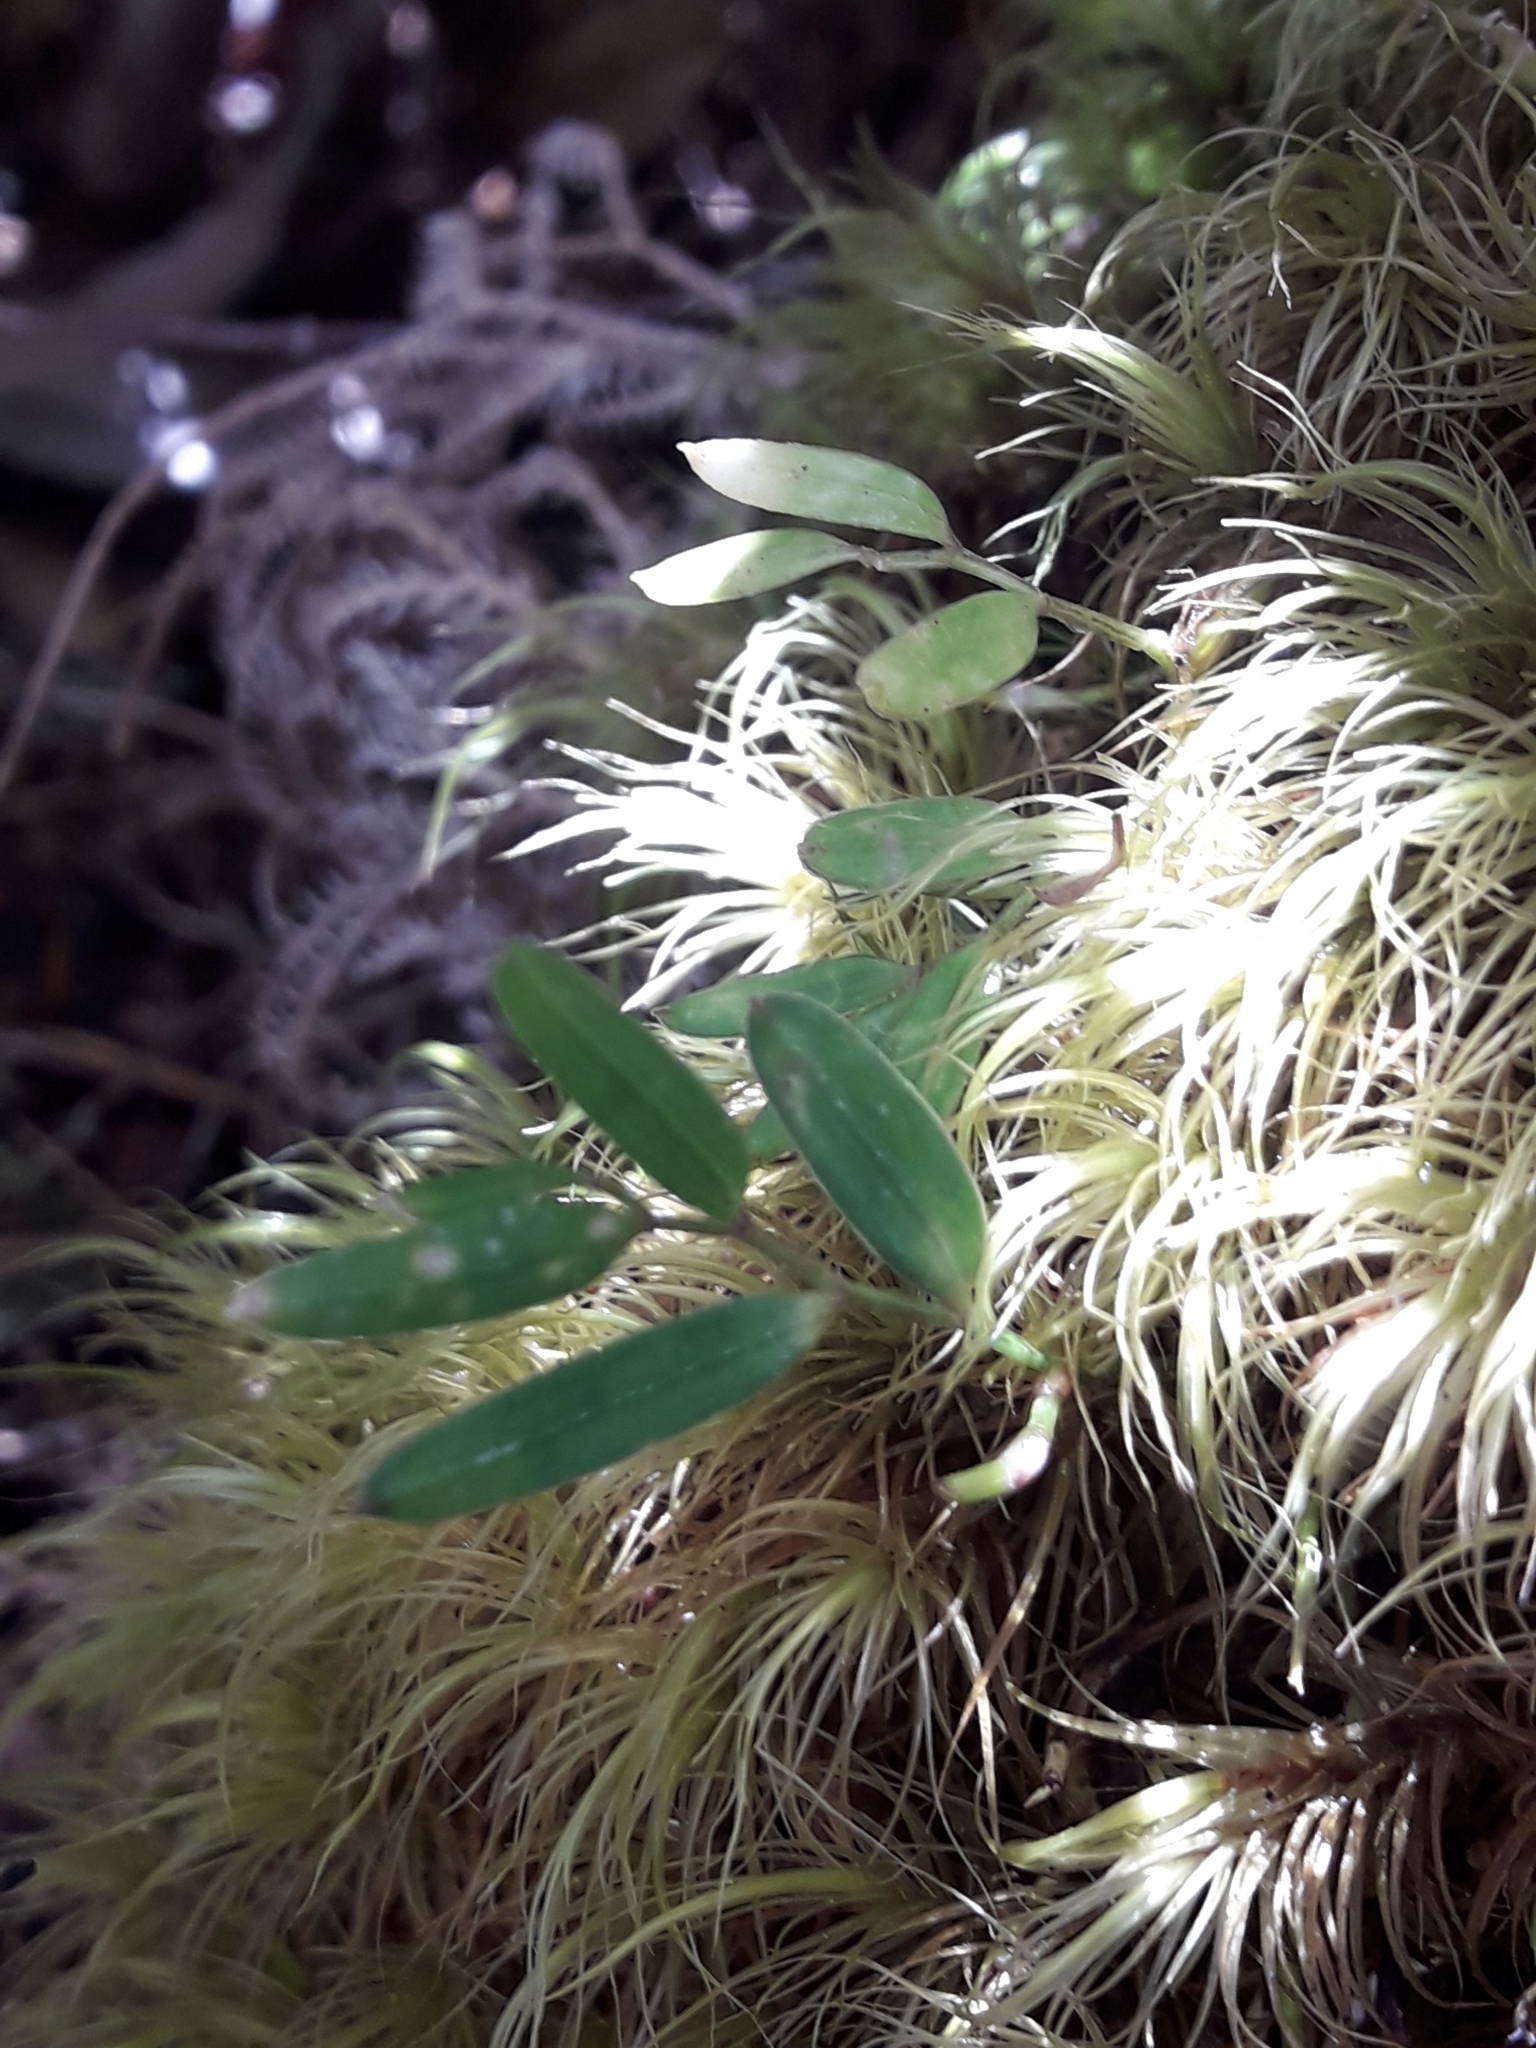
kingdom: Plantae
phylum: Tracheophyta
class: Liliopsida
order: Liliales
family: Alstroemeriaceae
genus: Luzuriaga
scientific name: Luzuriaga parviflora
